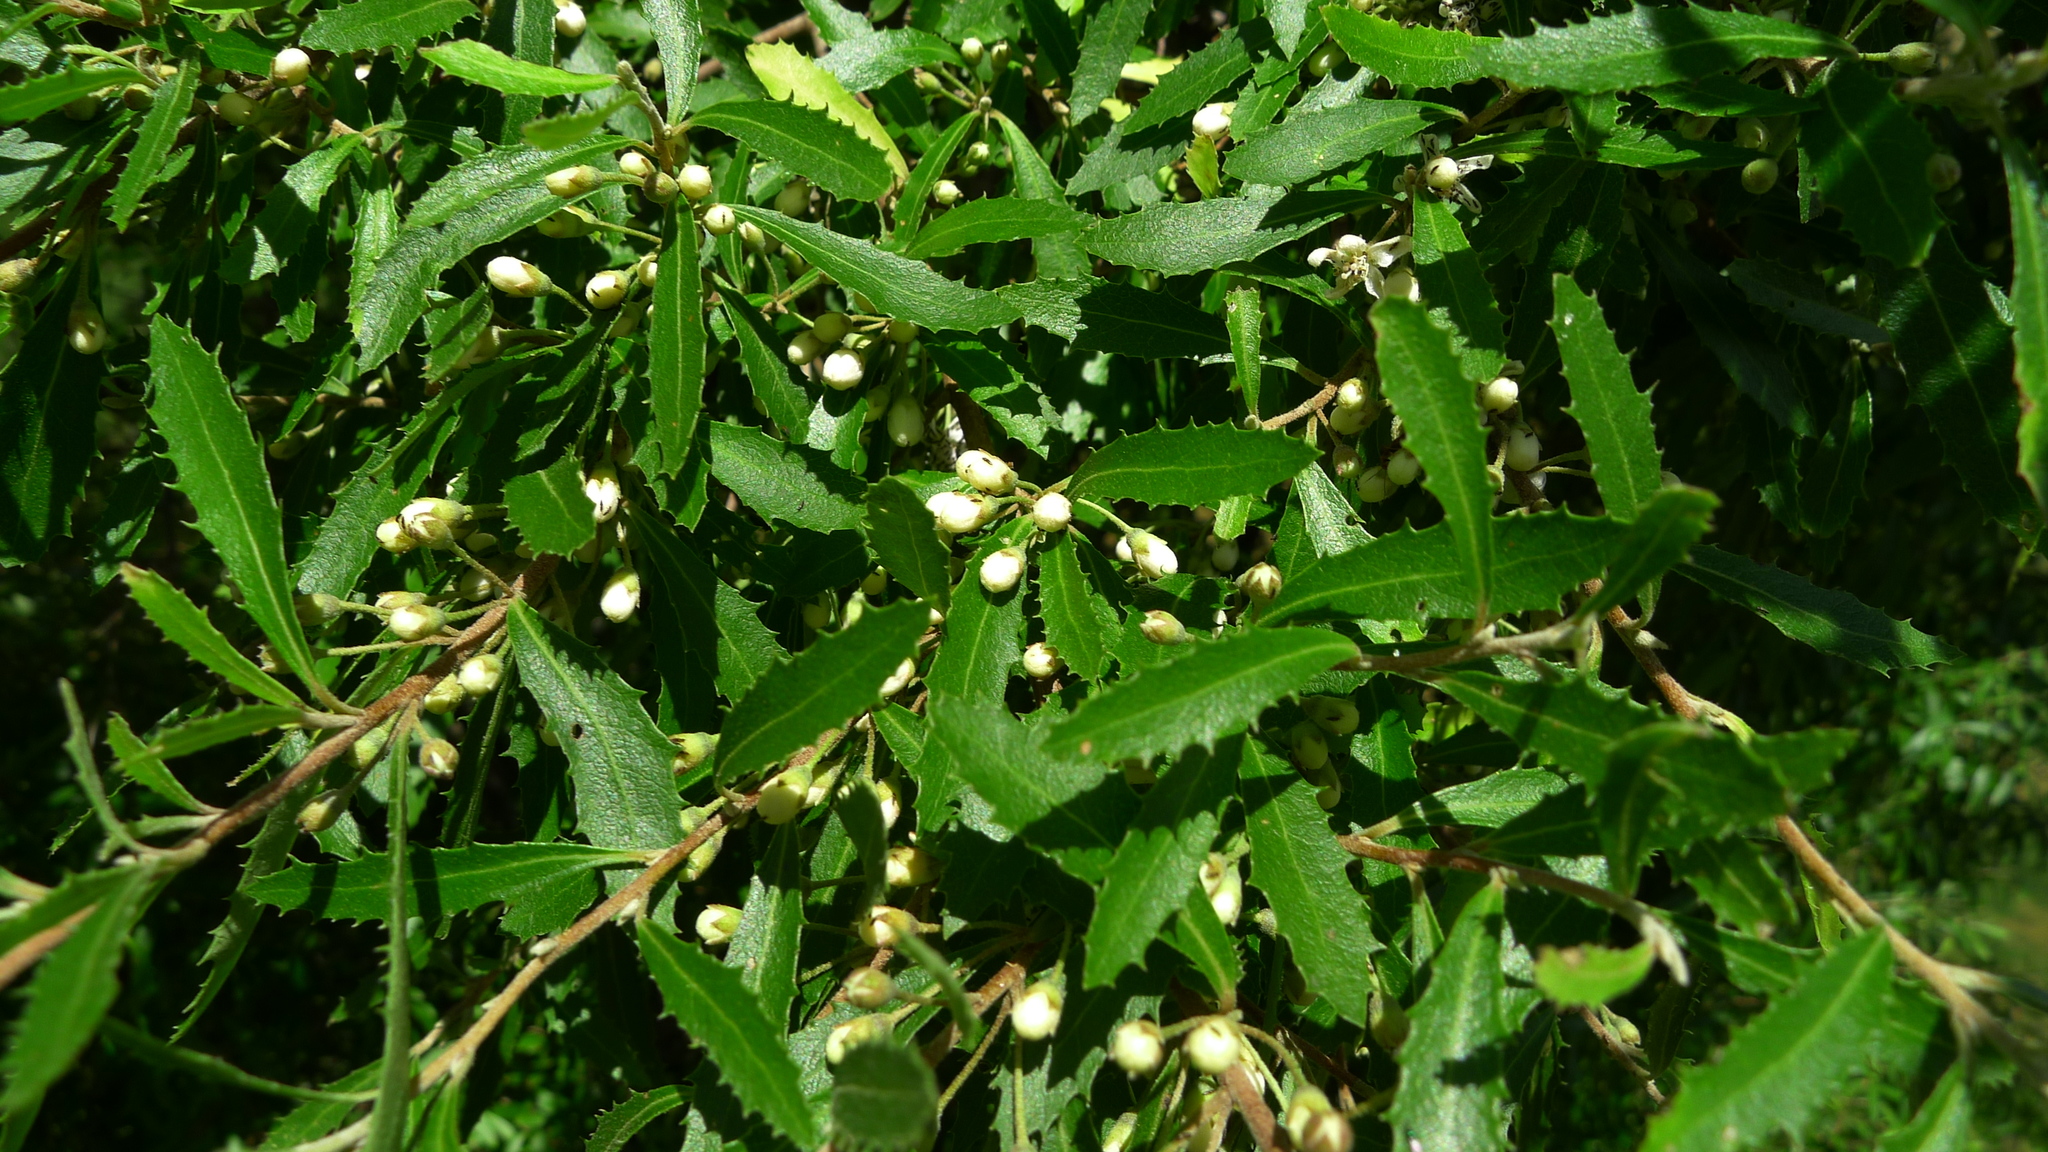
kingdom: Plantae
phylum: Tracheophyta
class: Magnoliopsida
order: Malvales
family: Malvaceae
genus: Hoheria
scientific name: Hoheria angustifolia
